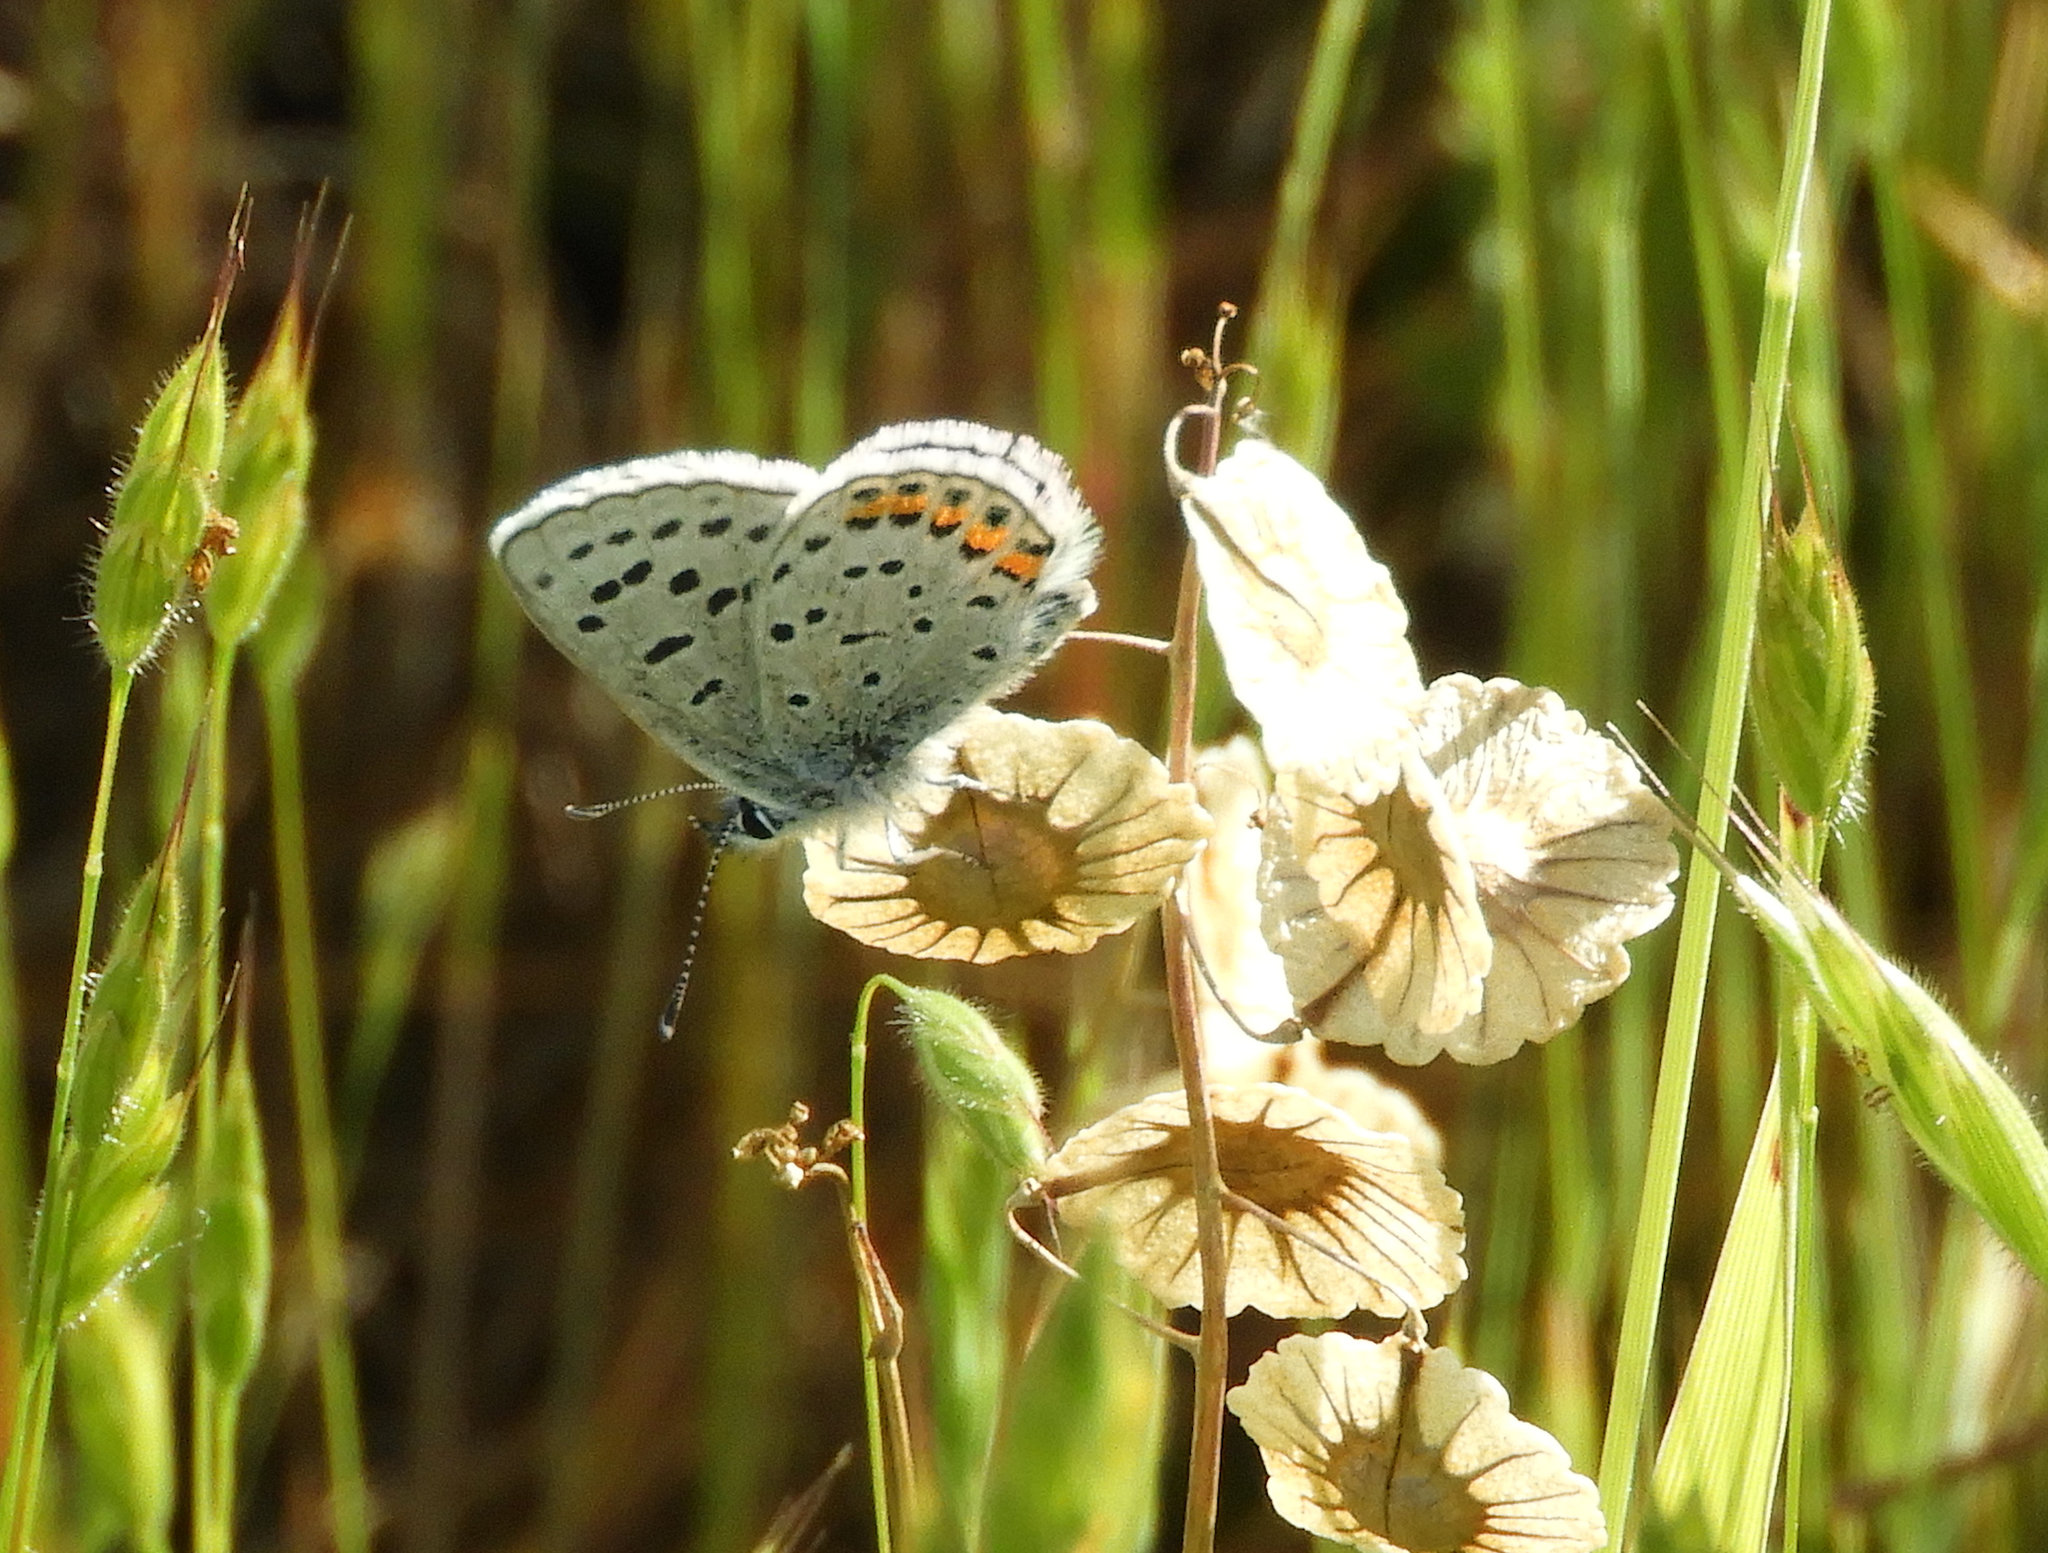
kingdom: Animalia
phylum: Arthropoda
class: Insecta
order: Lepidoptera
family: Lycaenidae
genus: Icaricia
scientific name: Icaricia acmon
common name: Acmon blue
